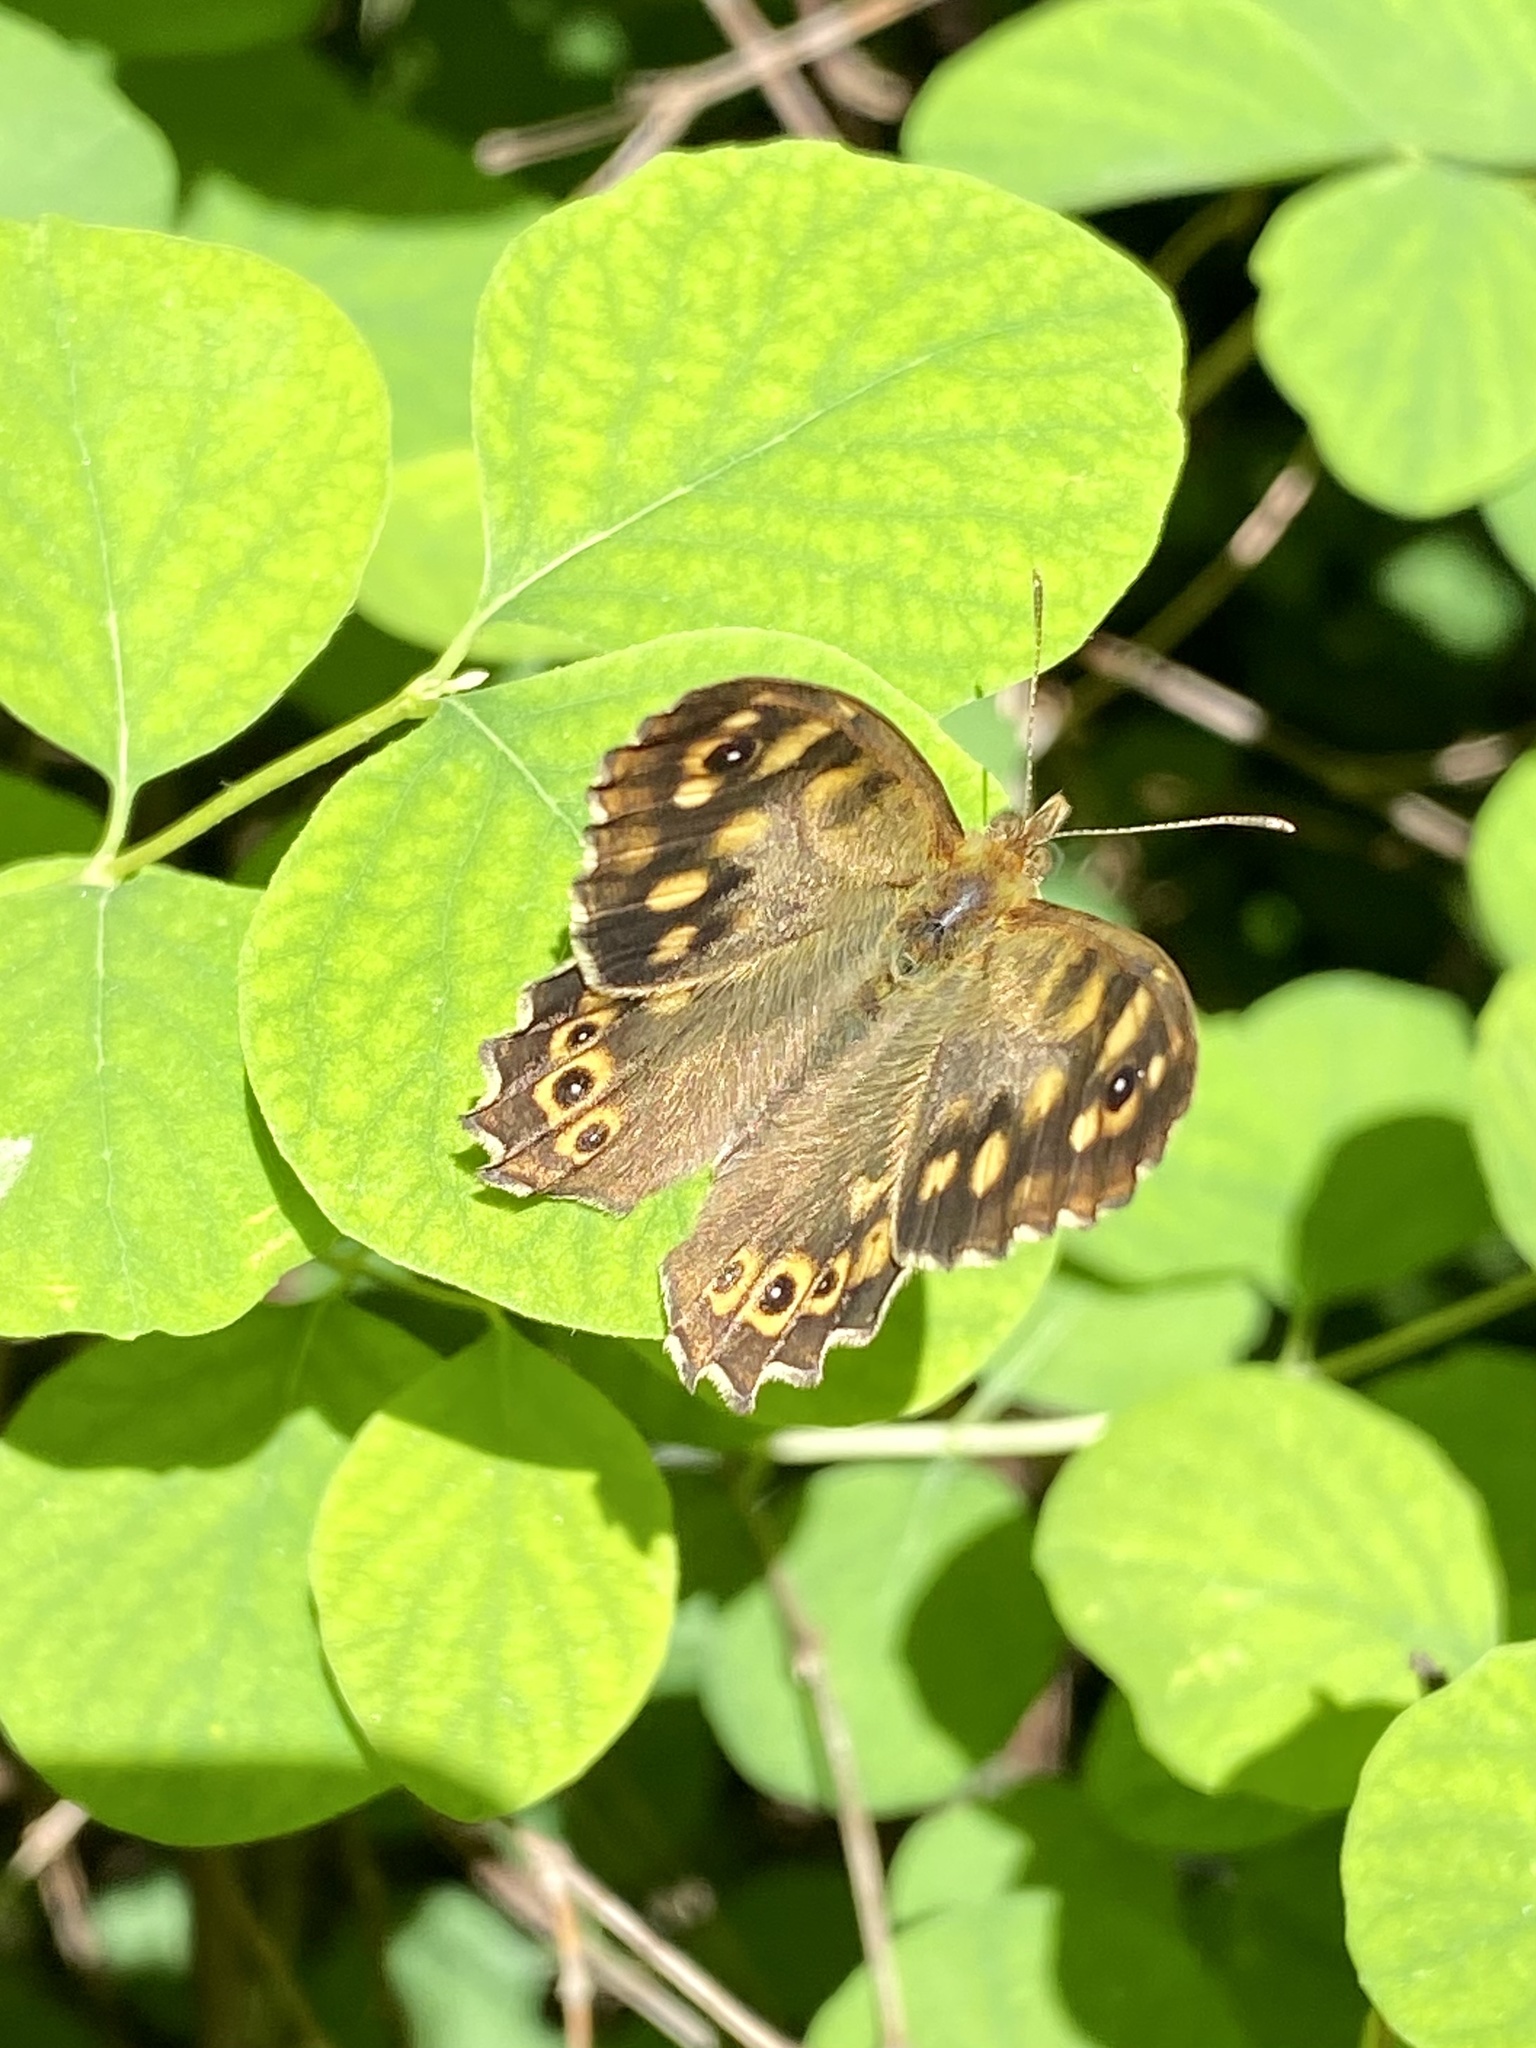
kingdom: Animalia
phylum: Arthropoda
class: Insecta
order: Lepidoptera
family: Nymphalidae
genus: Pararge
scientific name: Pararge aegeria
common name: Speckled wood
